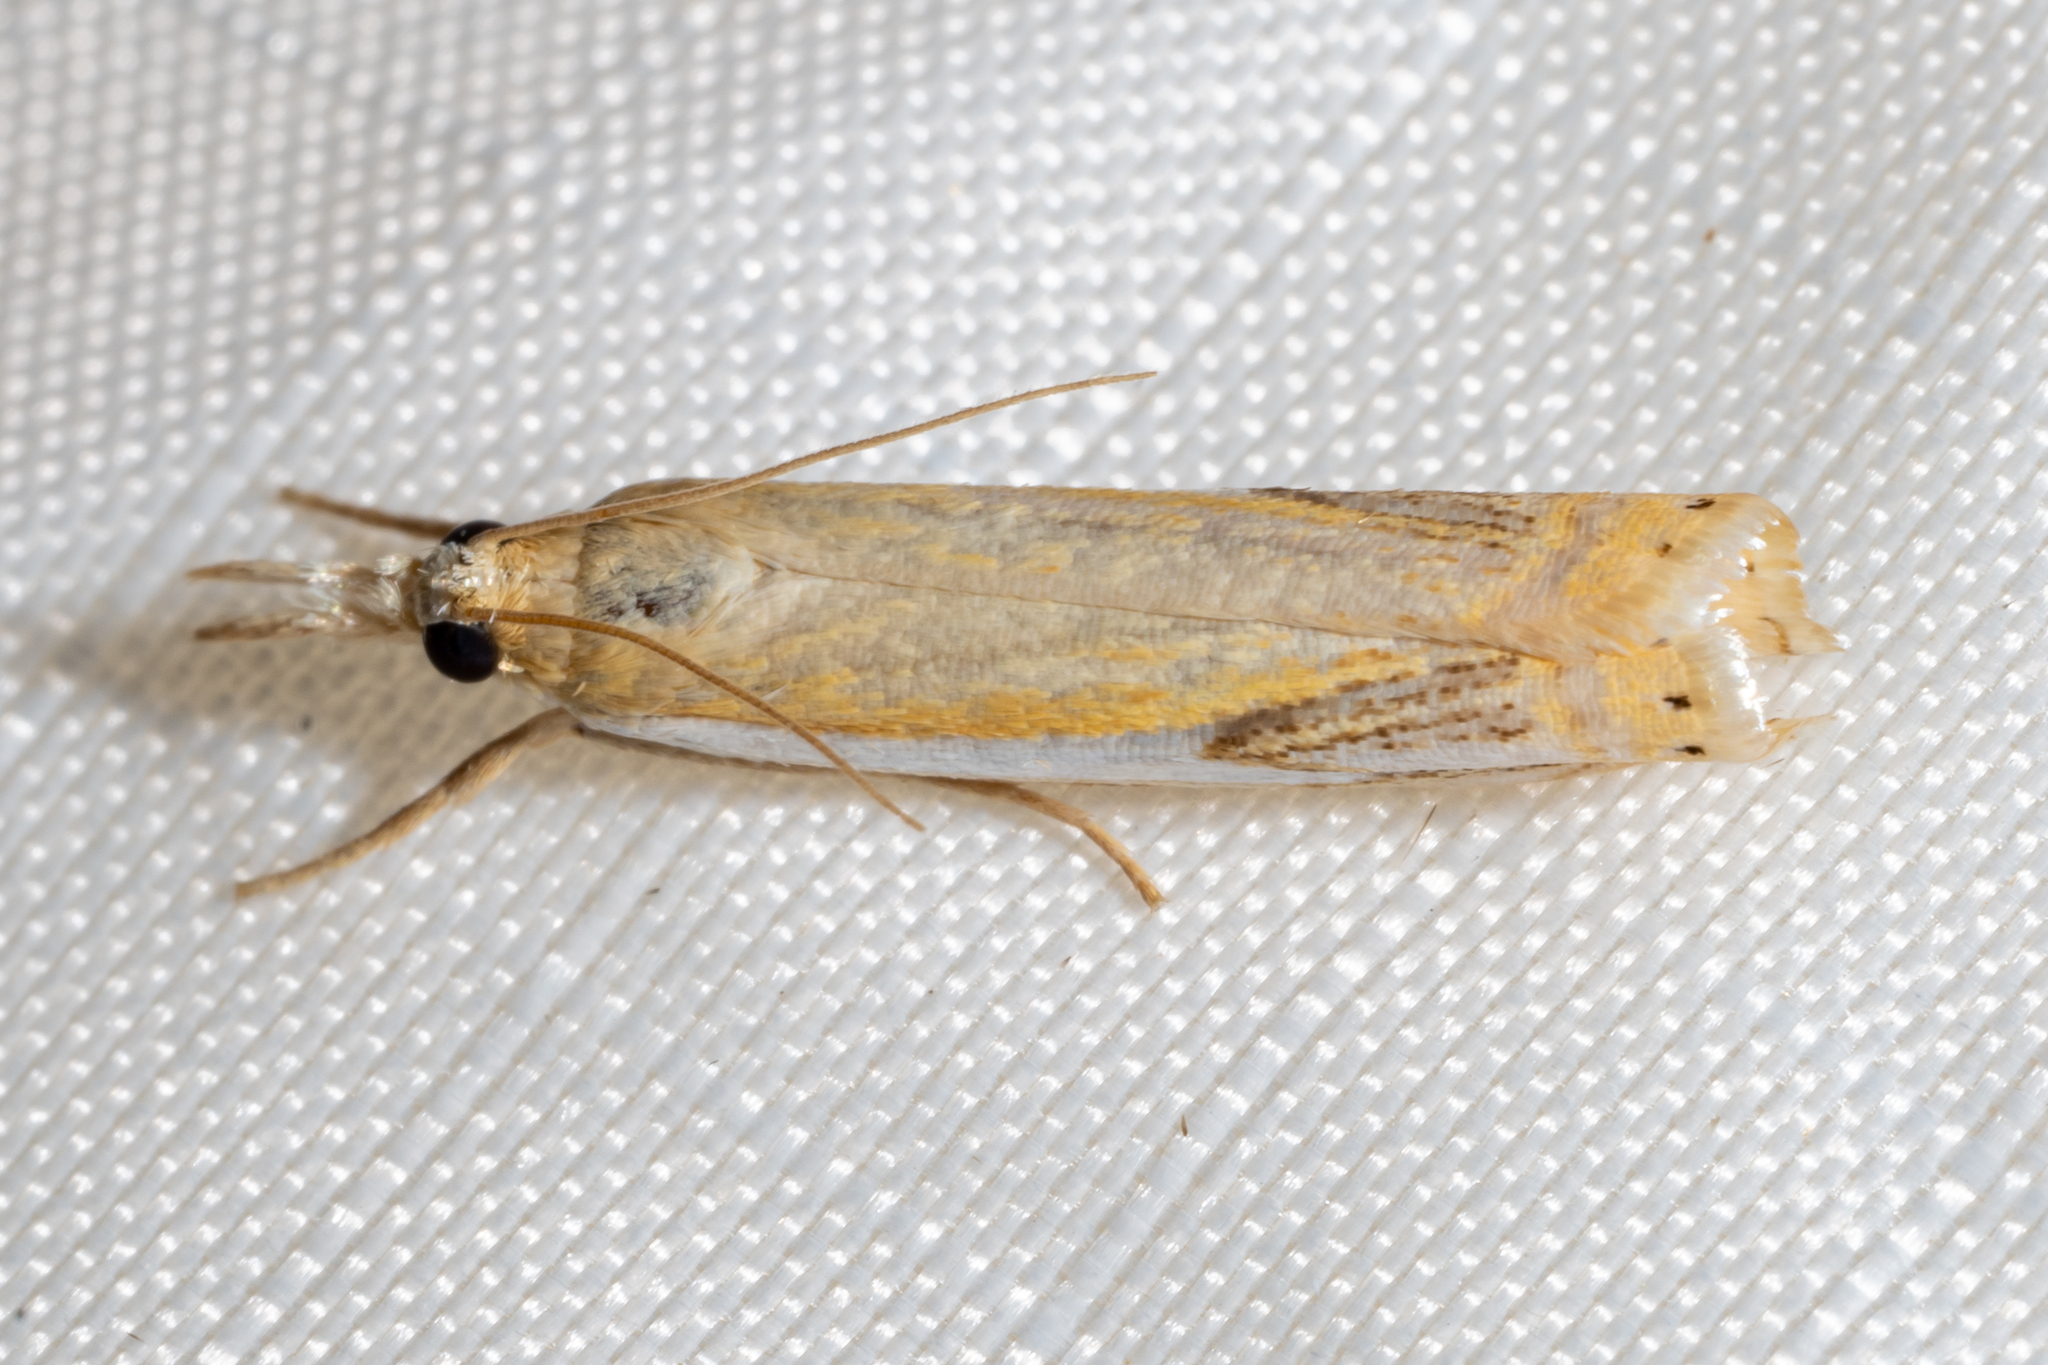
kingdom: Animalia
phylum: Arthropoda
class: Insecta
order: Lepidoptera
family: Crambidae
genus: Crambus
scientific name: Crambus agitatellus
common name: Double-banded grass-veneer
